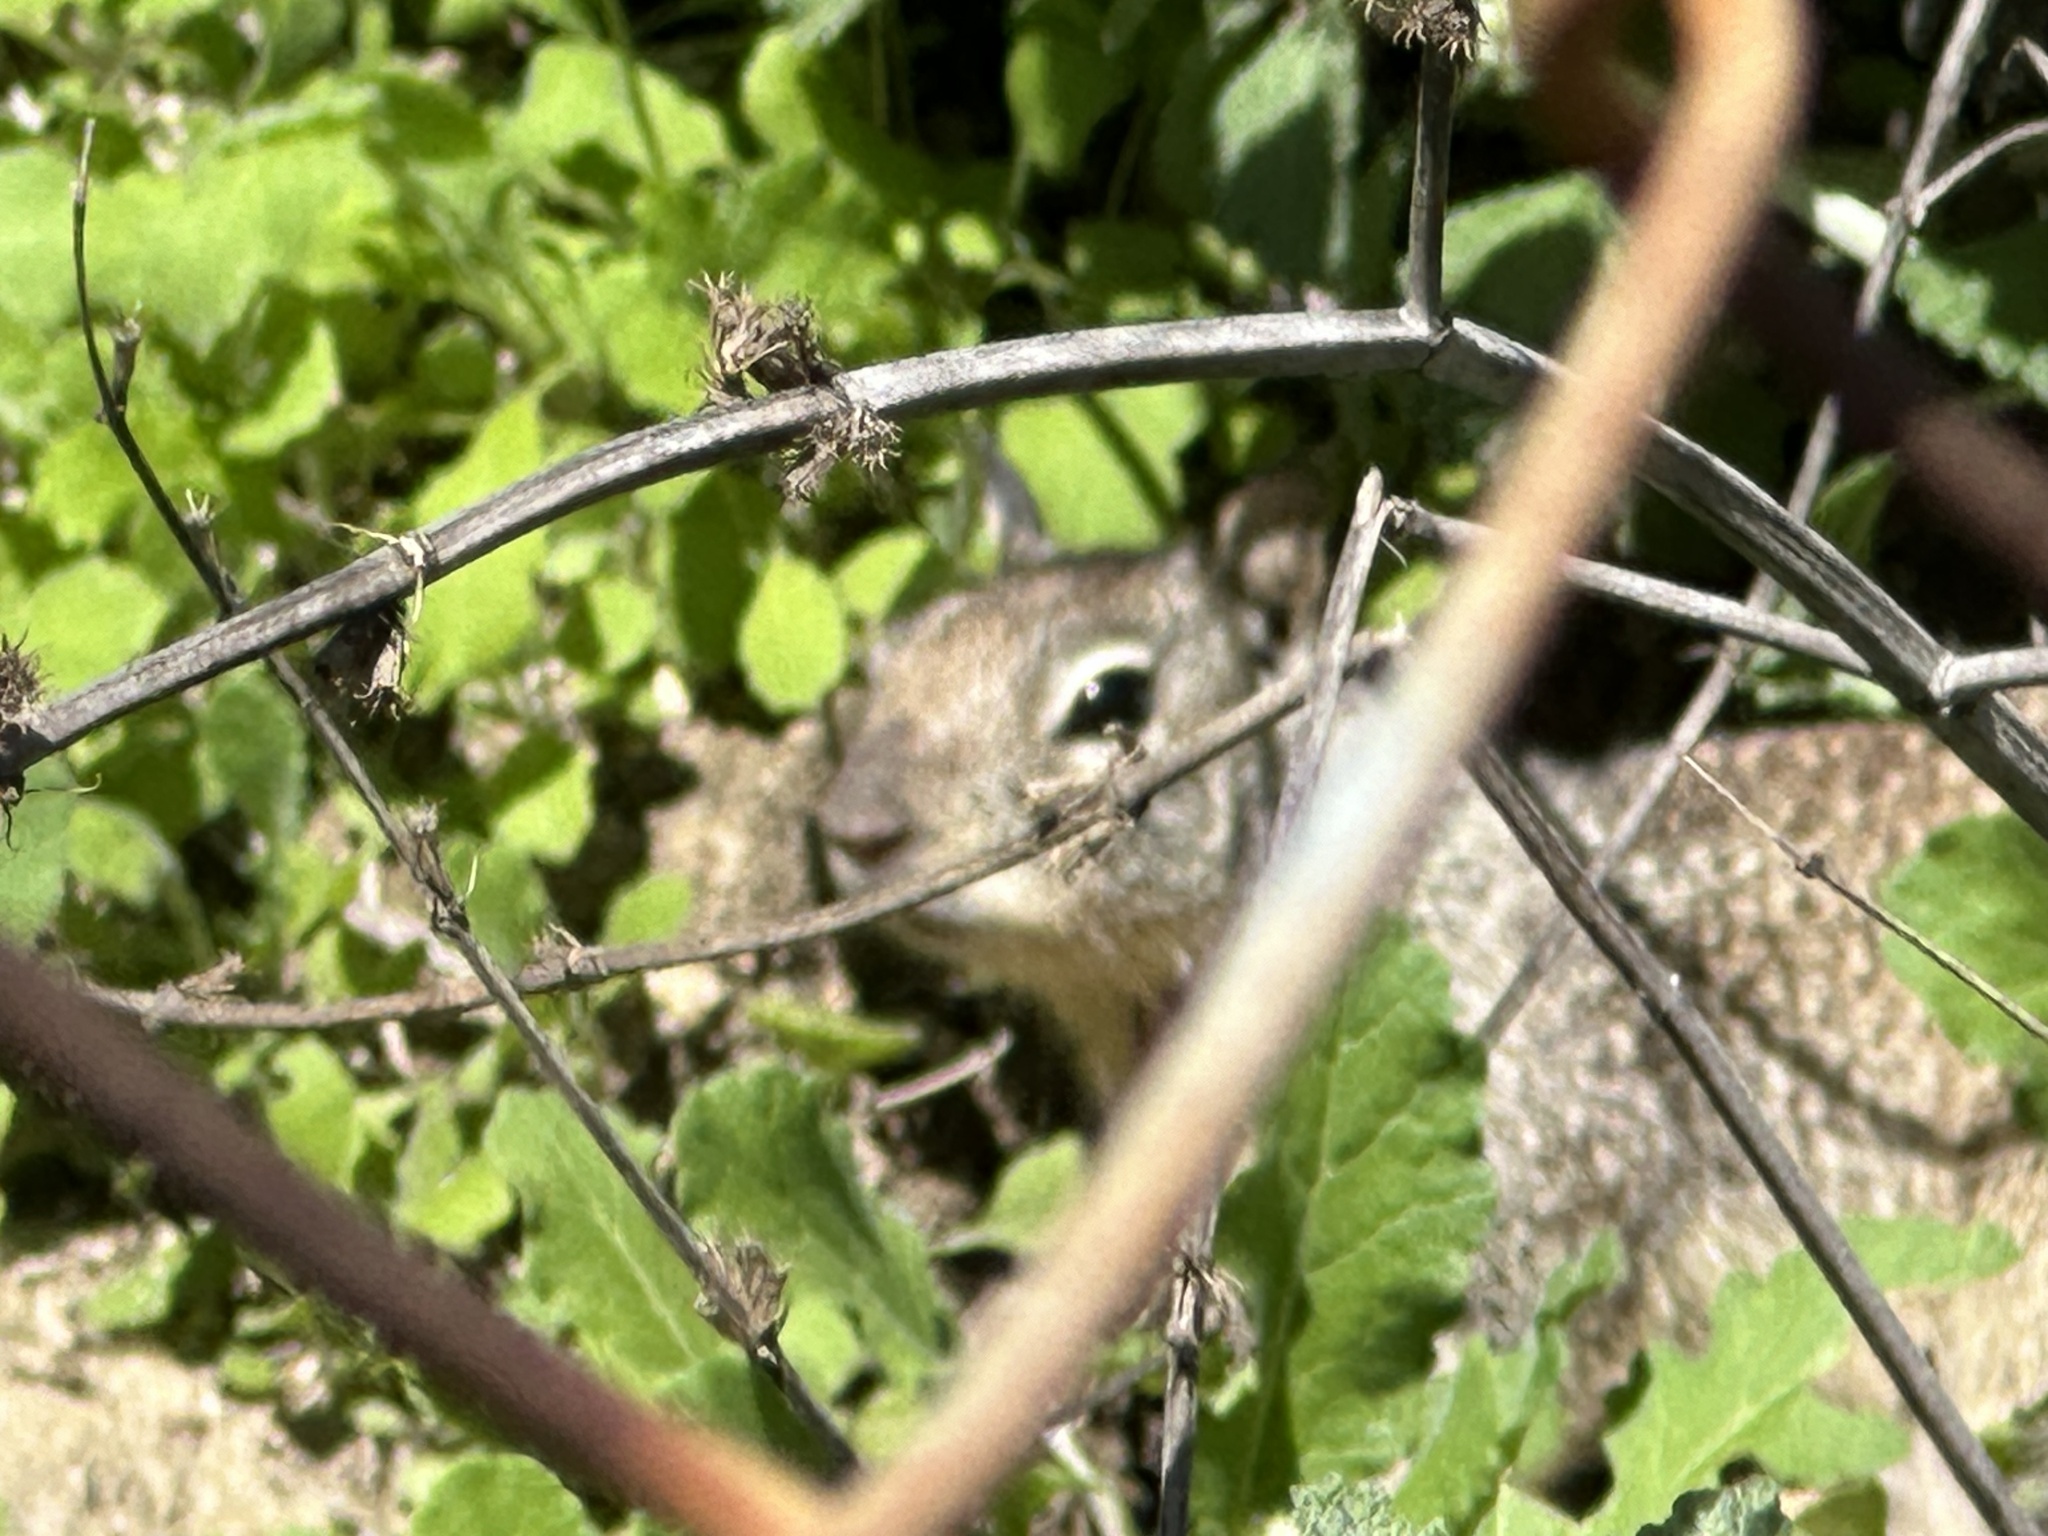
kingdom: Animalia
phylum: Chordata
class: Mammalia
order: Rodentia
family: Sciuridae
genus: Otospermophilus
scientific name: Otospermophilus beecheyi
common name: California ground squirrel
